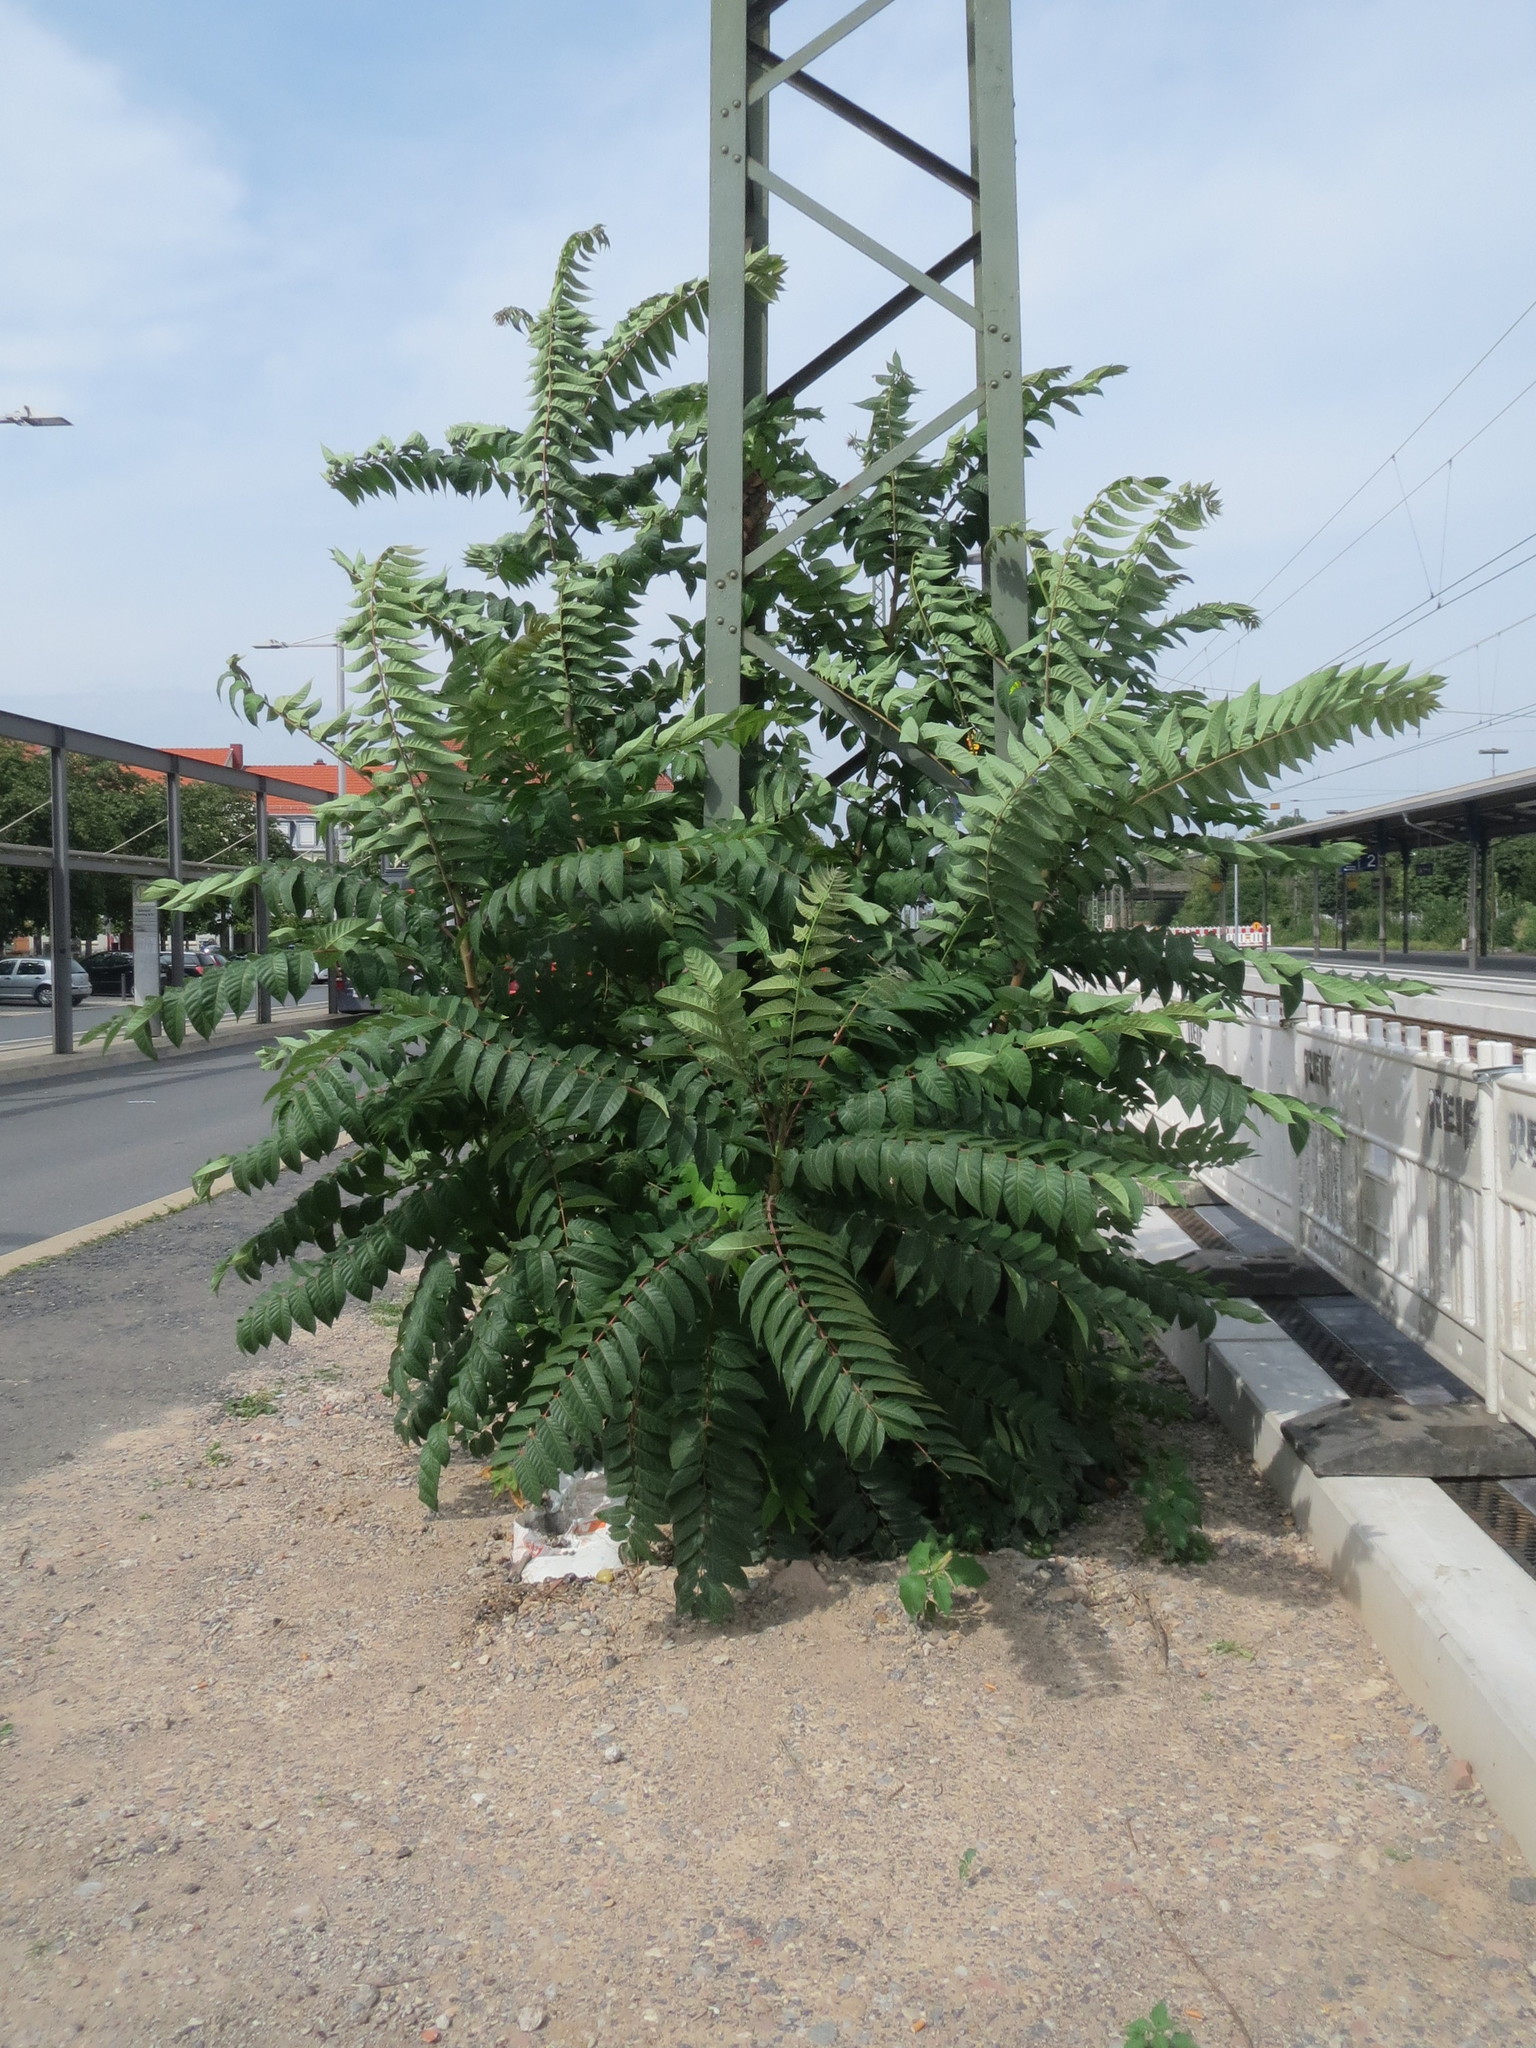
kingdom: Plantae
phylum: Tracheophyta
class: Magnoliopsida
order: Sapindales
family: Simaroubaceae
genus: Ailanthus
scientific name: Ailanthus altissima
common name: Tree-of-heaven
